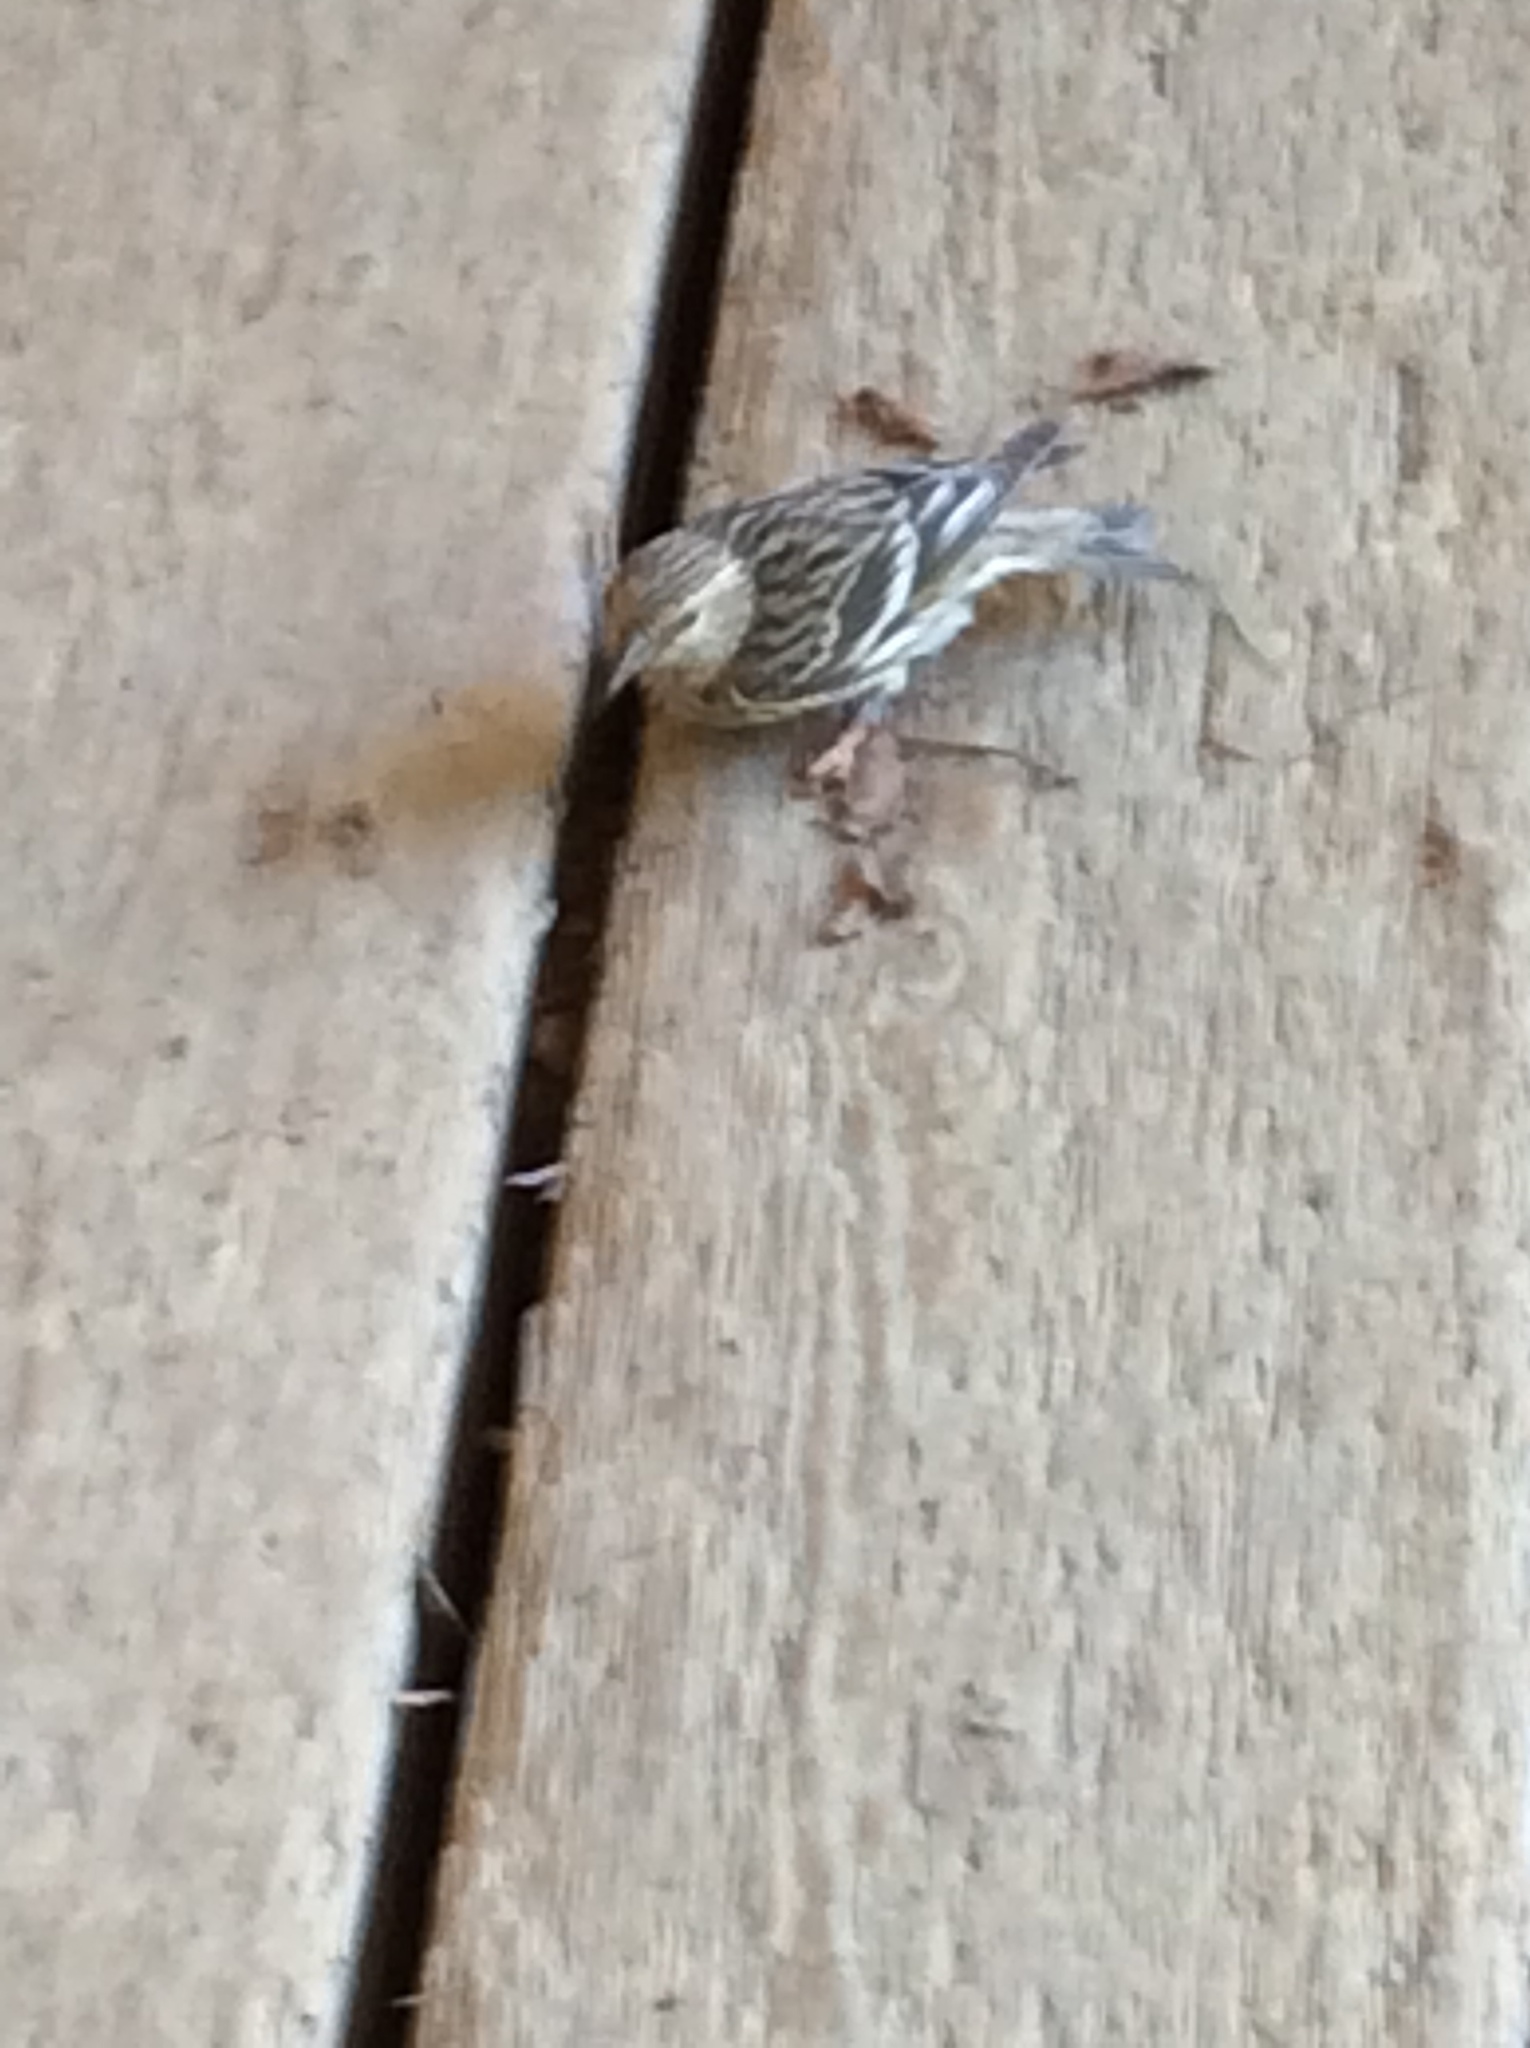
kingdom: Animalia
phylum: Chordata
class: Aves
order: Passeriformes
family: Fringillidae
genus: Spinus
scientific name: Spinus pinus
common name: Pine siskin
